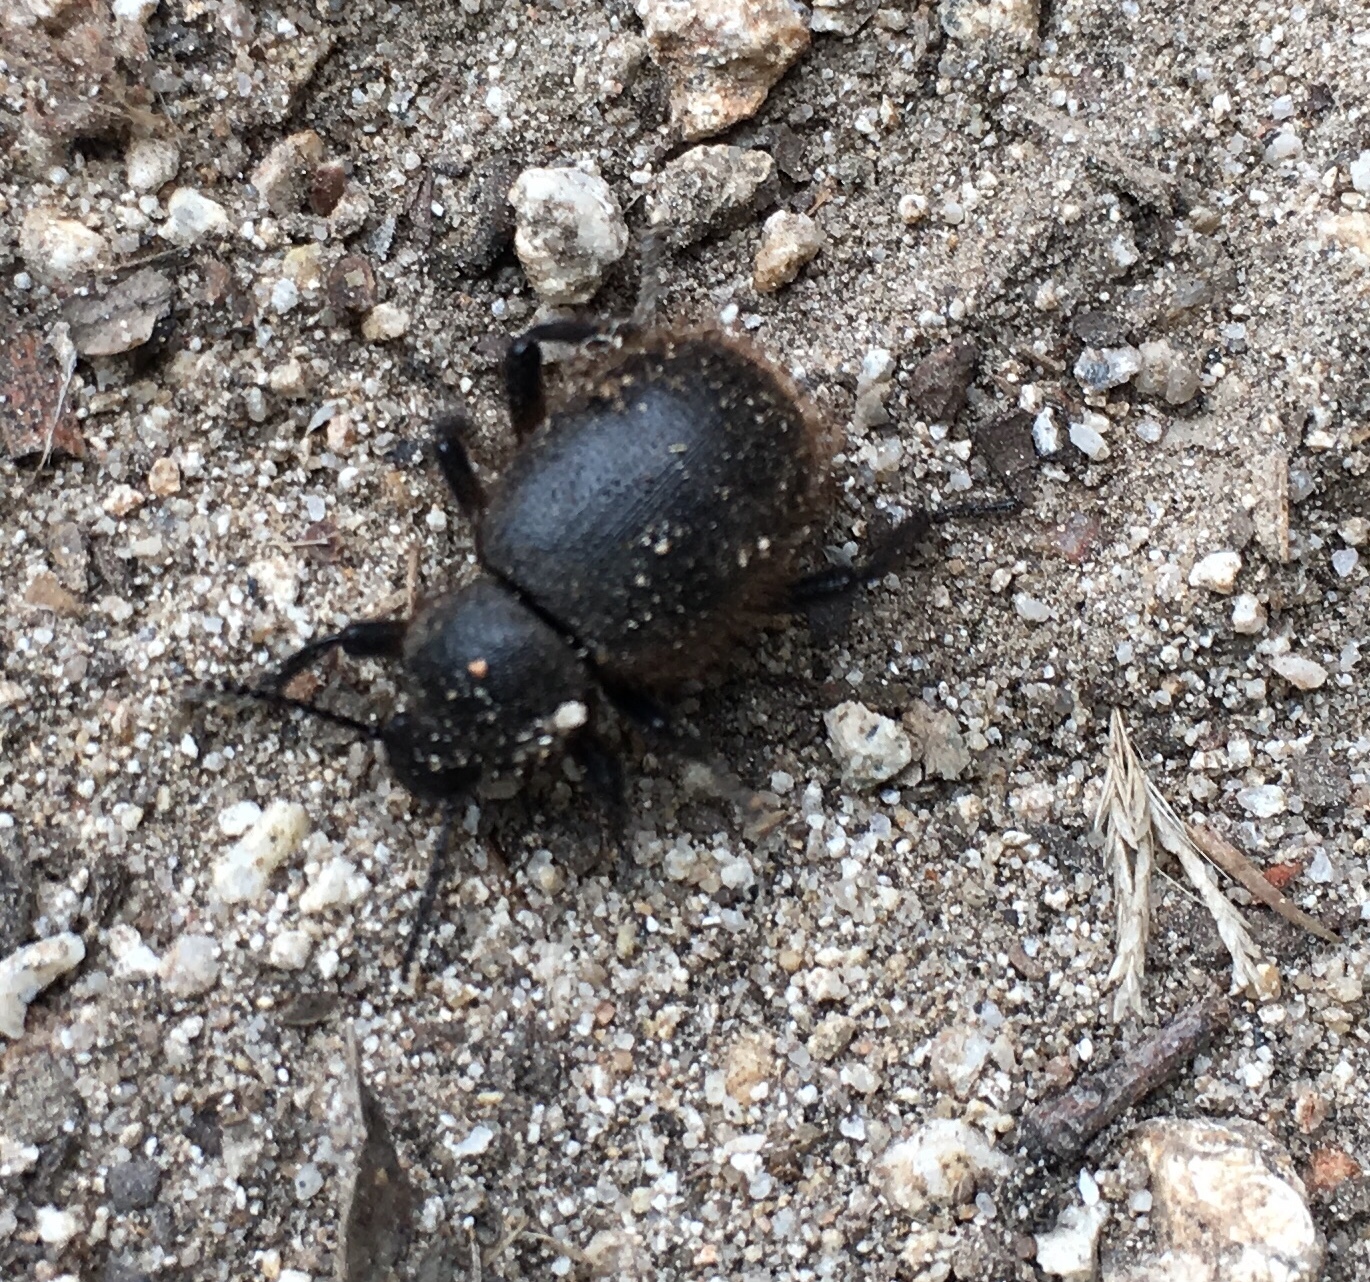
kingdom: Animalia
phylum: Arthropoda
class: Insecta
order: Coleoptera
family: Tenebrionidae
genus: Eleodes
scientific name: Eleodes osculans
